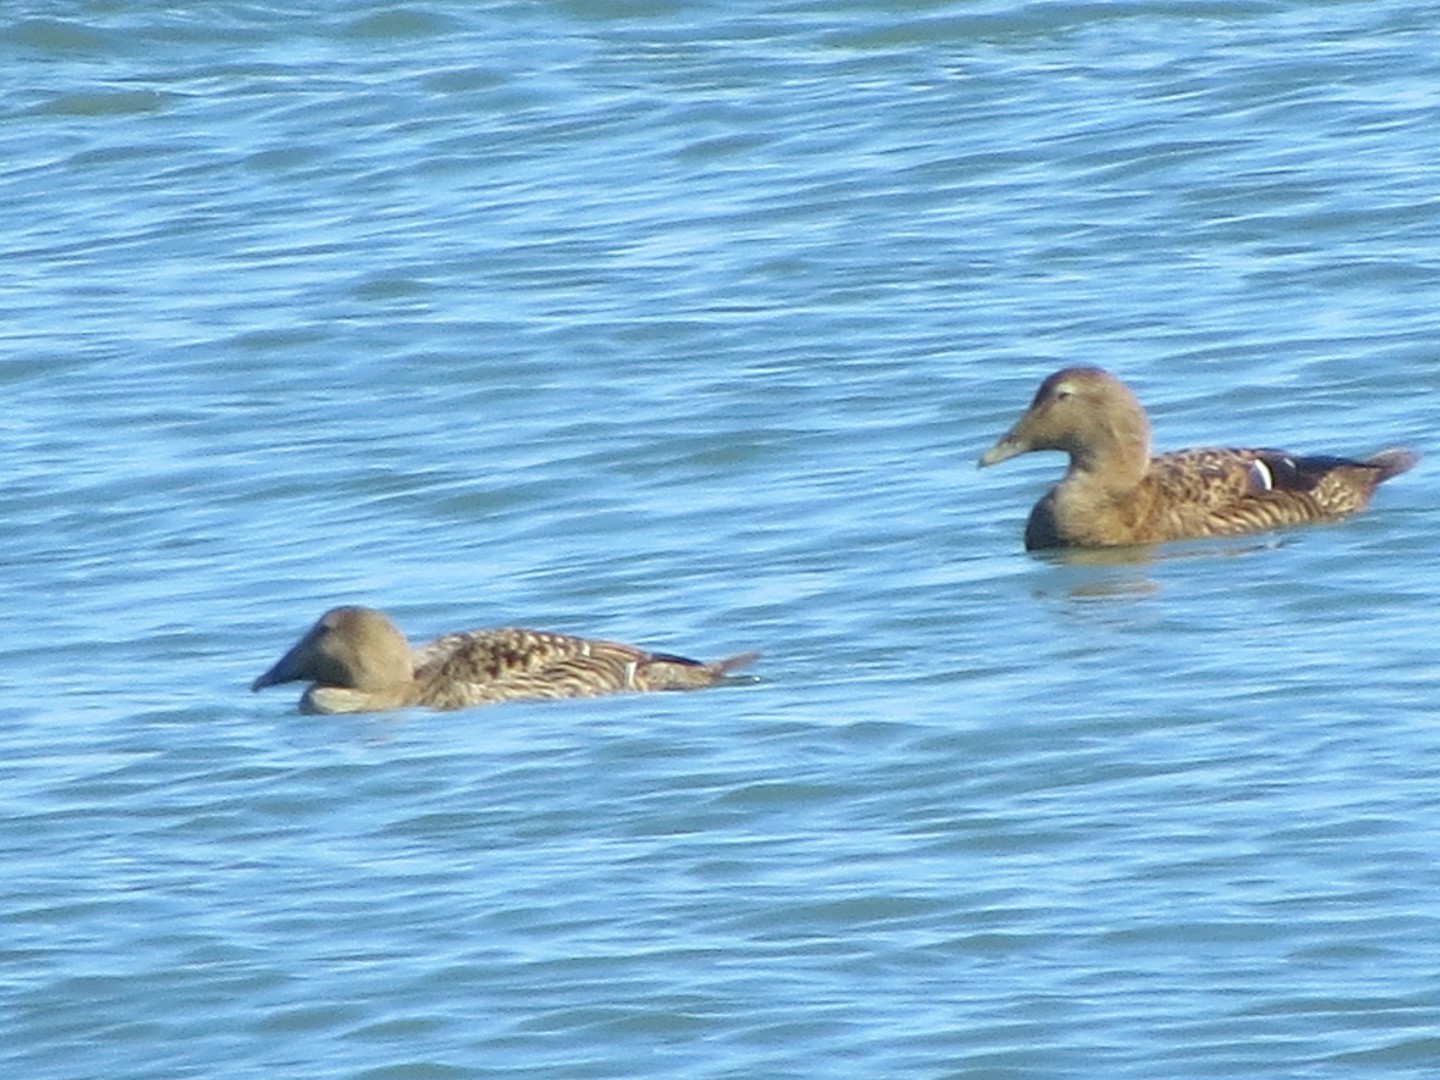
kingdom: Animalia
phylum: Chordata
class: Aves
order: Anseriformes
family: Anatidae
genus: Somateria
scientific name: Somateria mollissima
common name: Common eider
